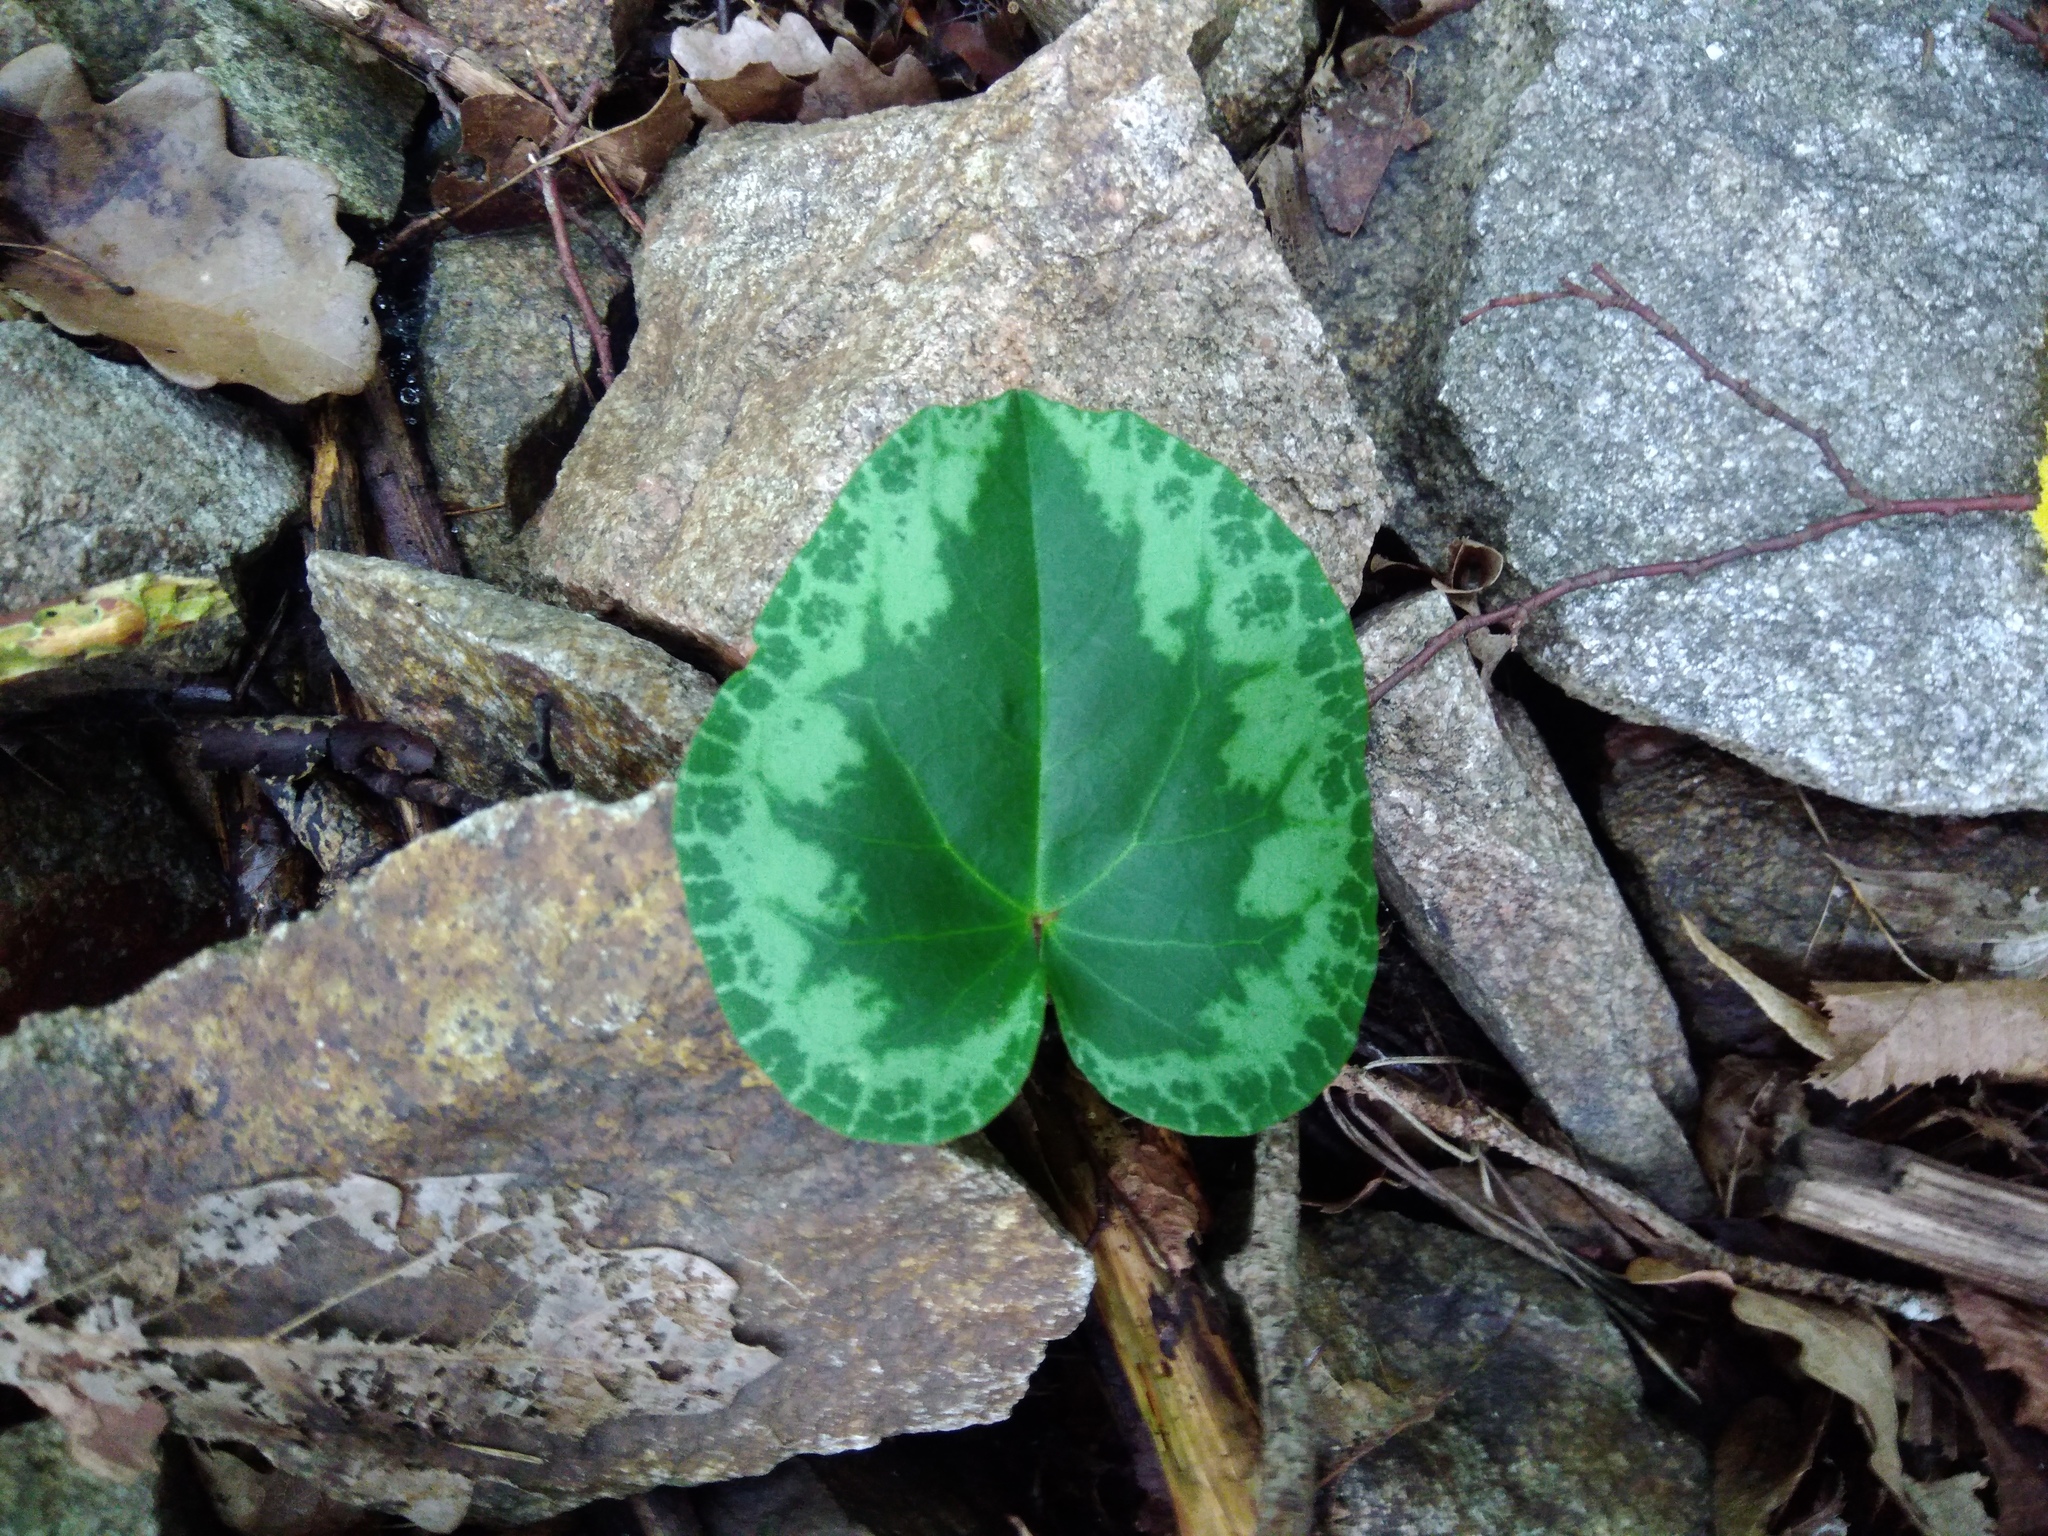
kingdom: Plantae
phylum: Tracheophyta
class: Magnoliopsida
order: Ericales
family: Primulaceae
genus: Cyclamen
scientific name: Cyclamen purpurascens
